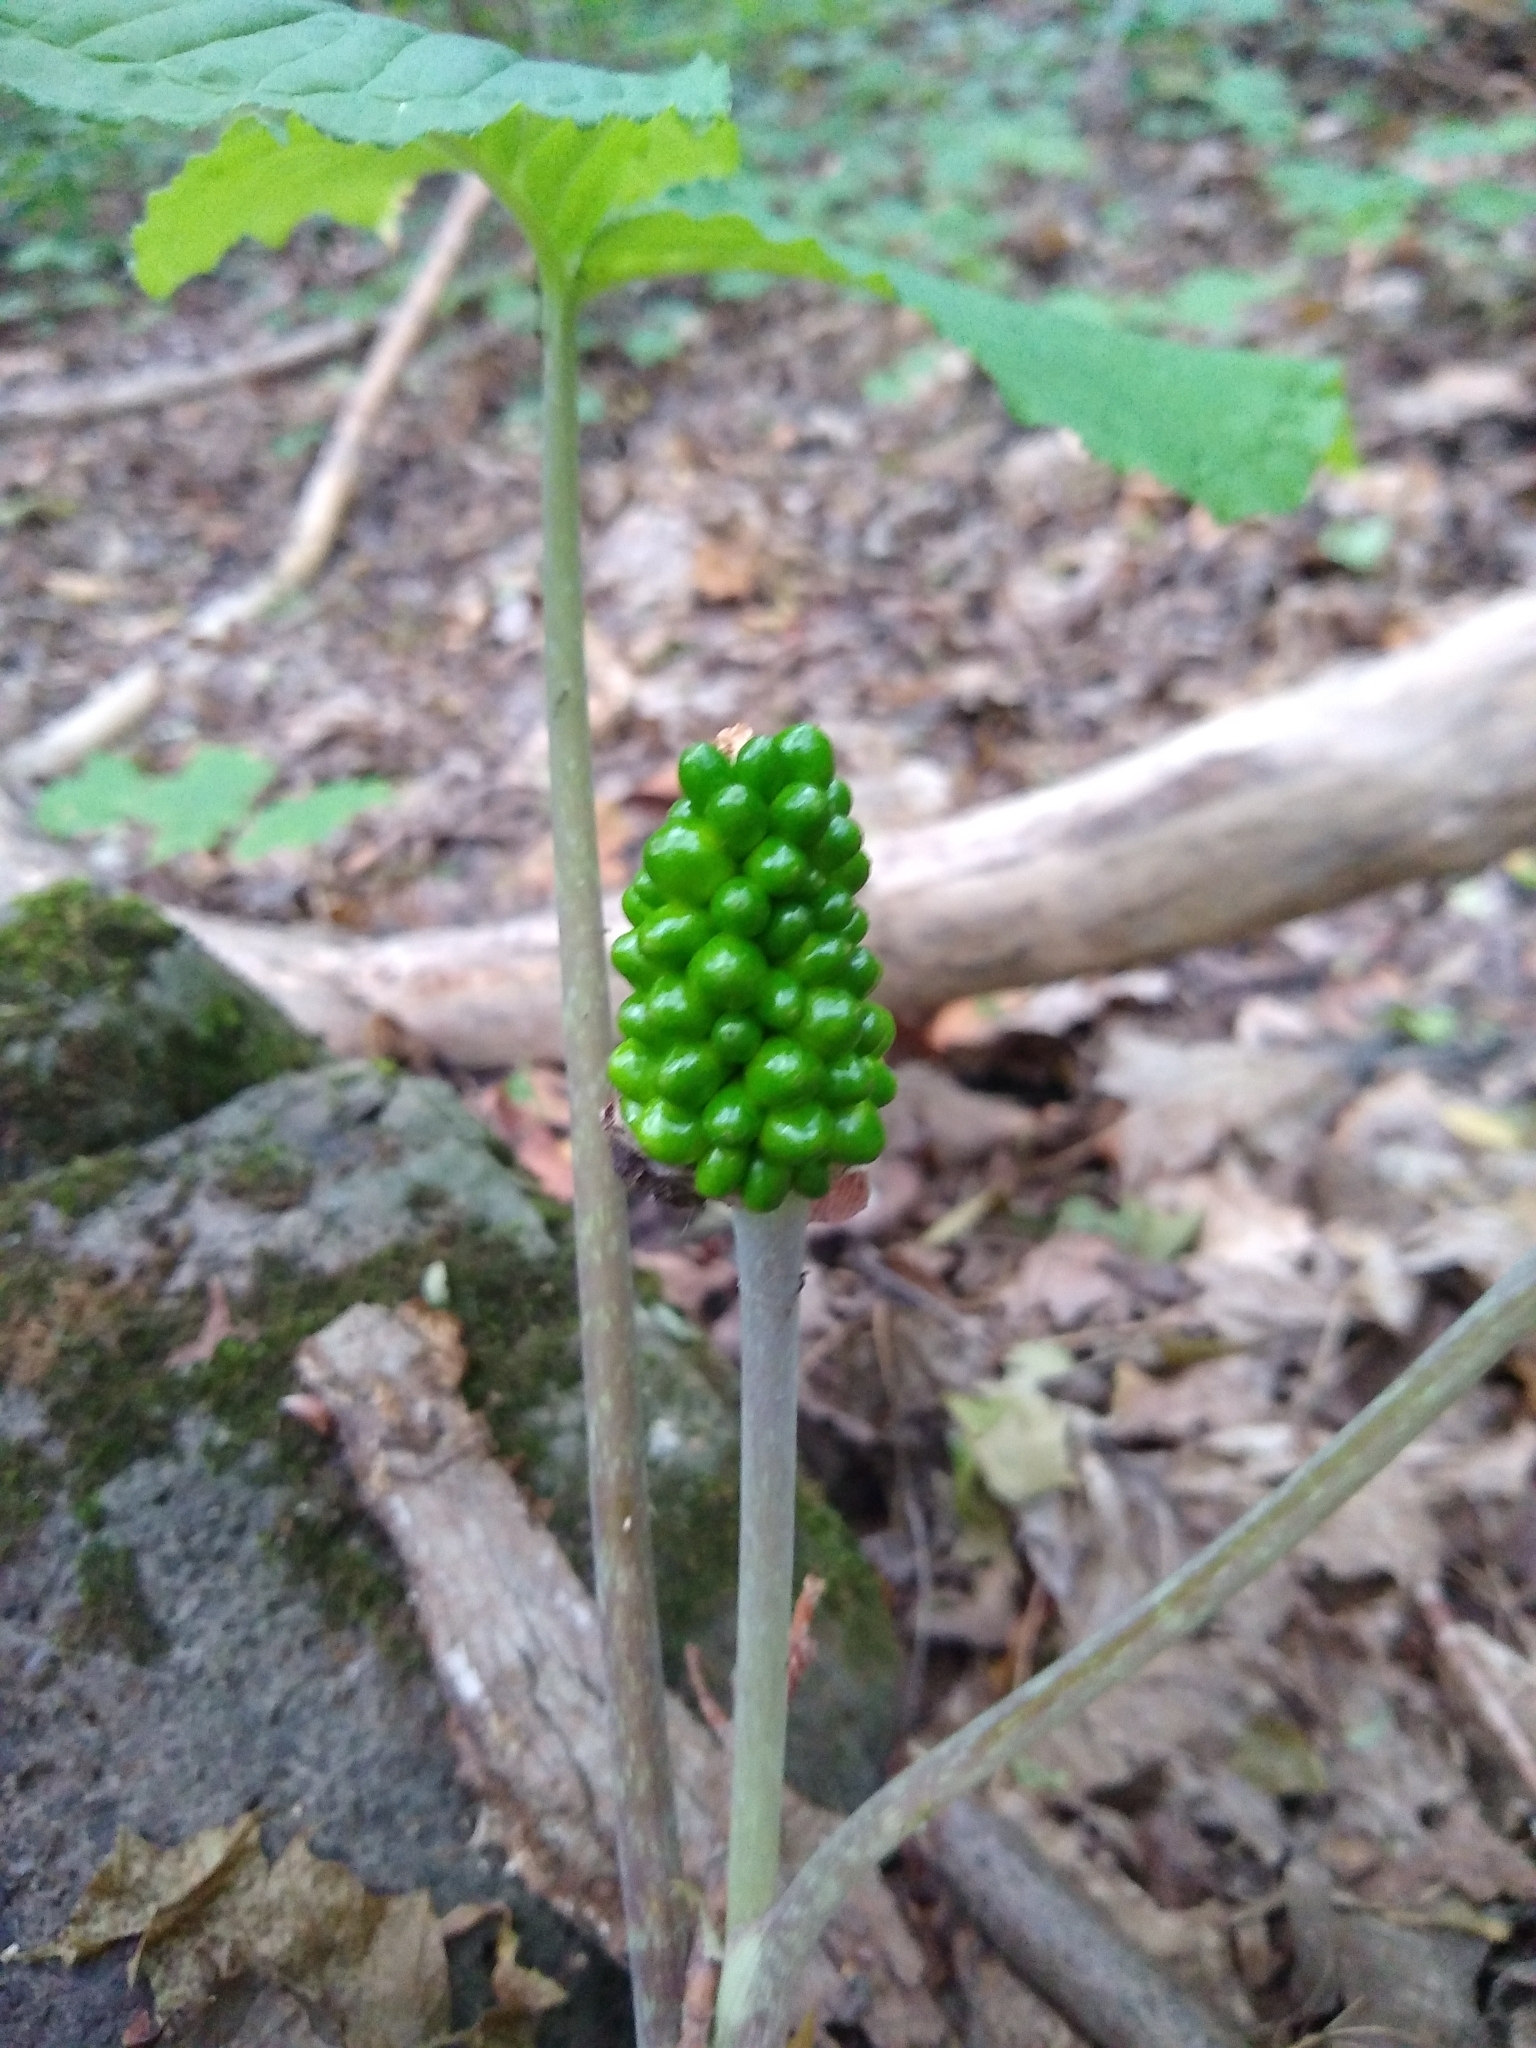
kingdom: Plantae
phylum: Tracheophyta
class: Liliopsida
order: Alismatales
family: Araceae
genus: Arisaema
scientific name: Arisaema triphyllum
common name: Jack-in-the-pulpit
